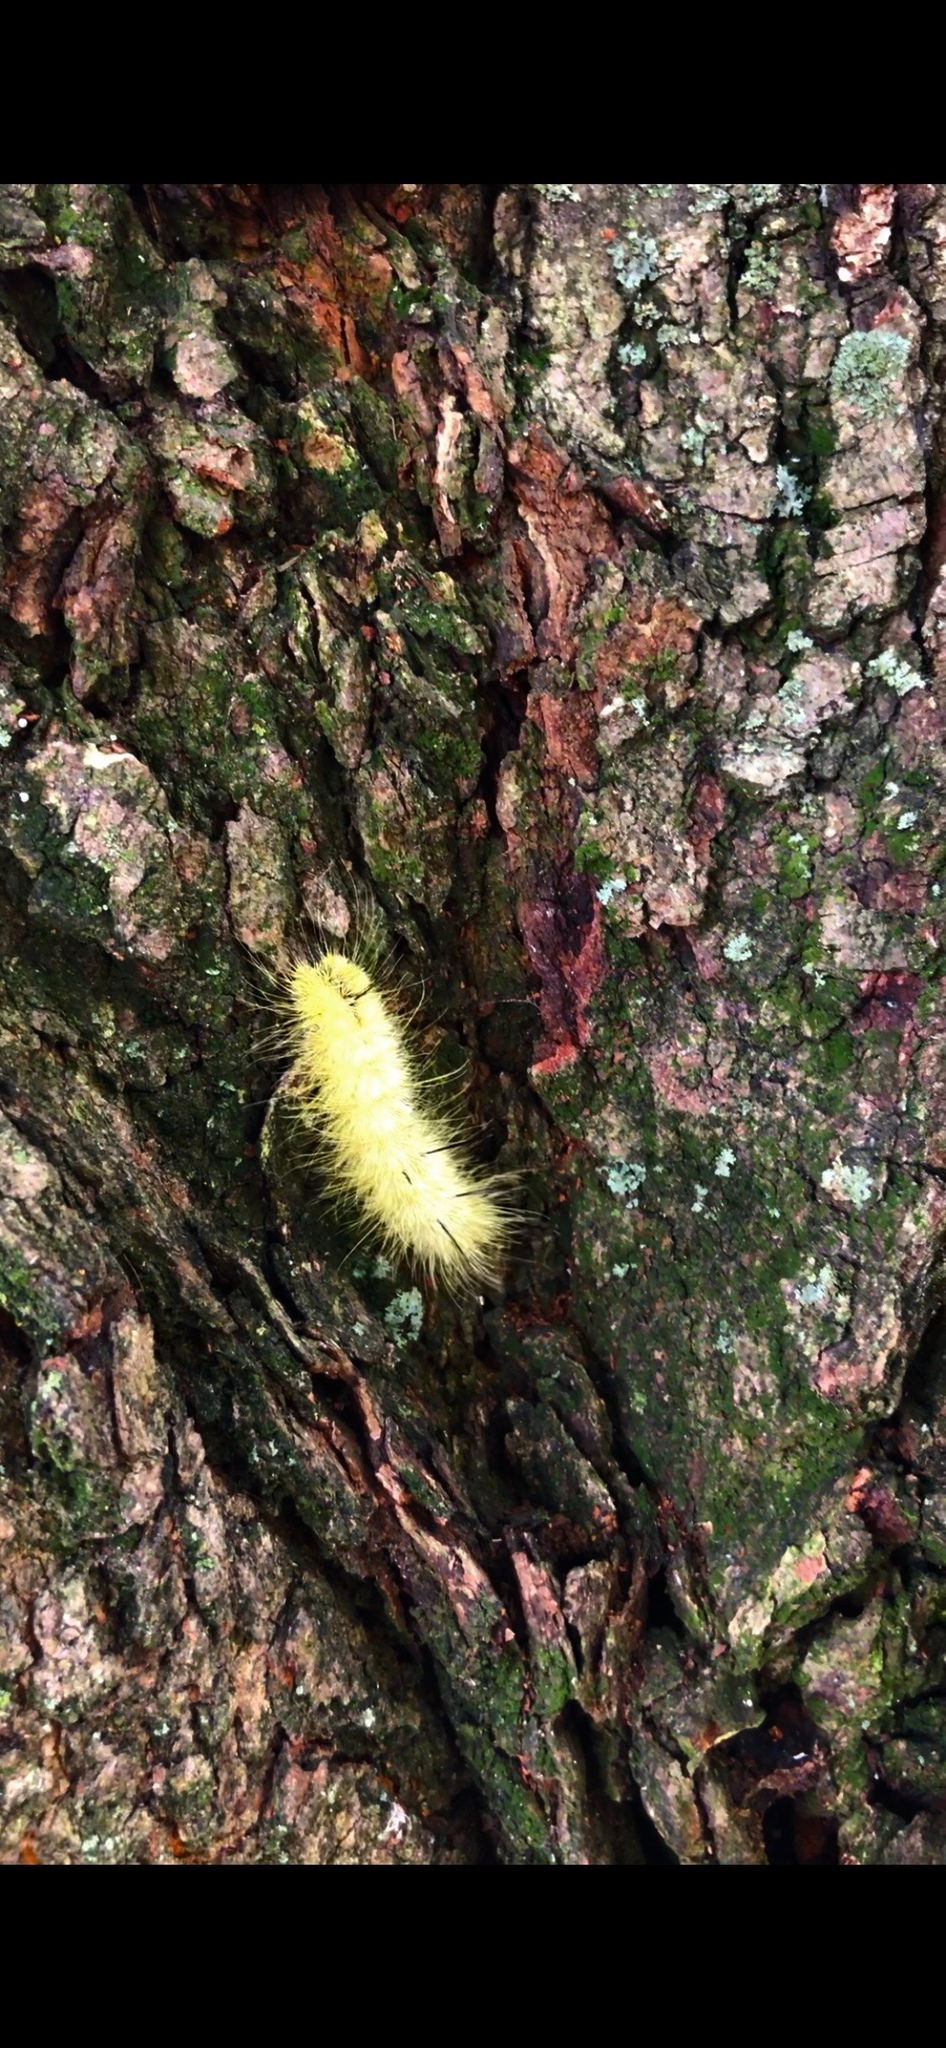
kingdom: Animalia
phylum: Arthropoda
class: Insecta
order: Lepidoptera
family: Noctuidae
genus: Acronicta
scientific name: Acronicta americana
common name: American dagger
